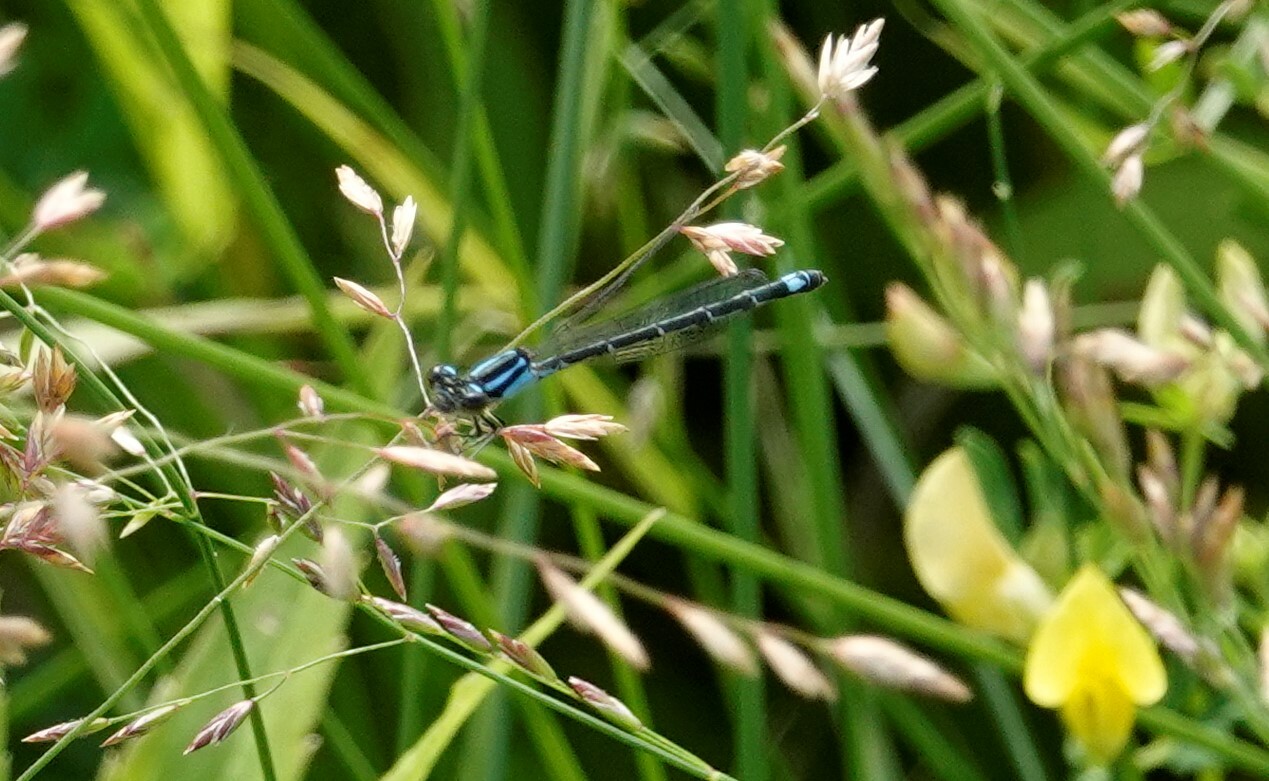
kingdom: Animalia
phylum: Arthropoda
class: Insecta
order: Odonata
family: Coenagrionidae
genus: Enallagma
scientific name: Enallagma geminatum
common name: Skimming bluet
